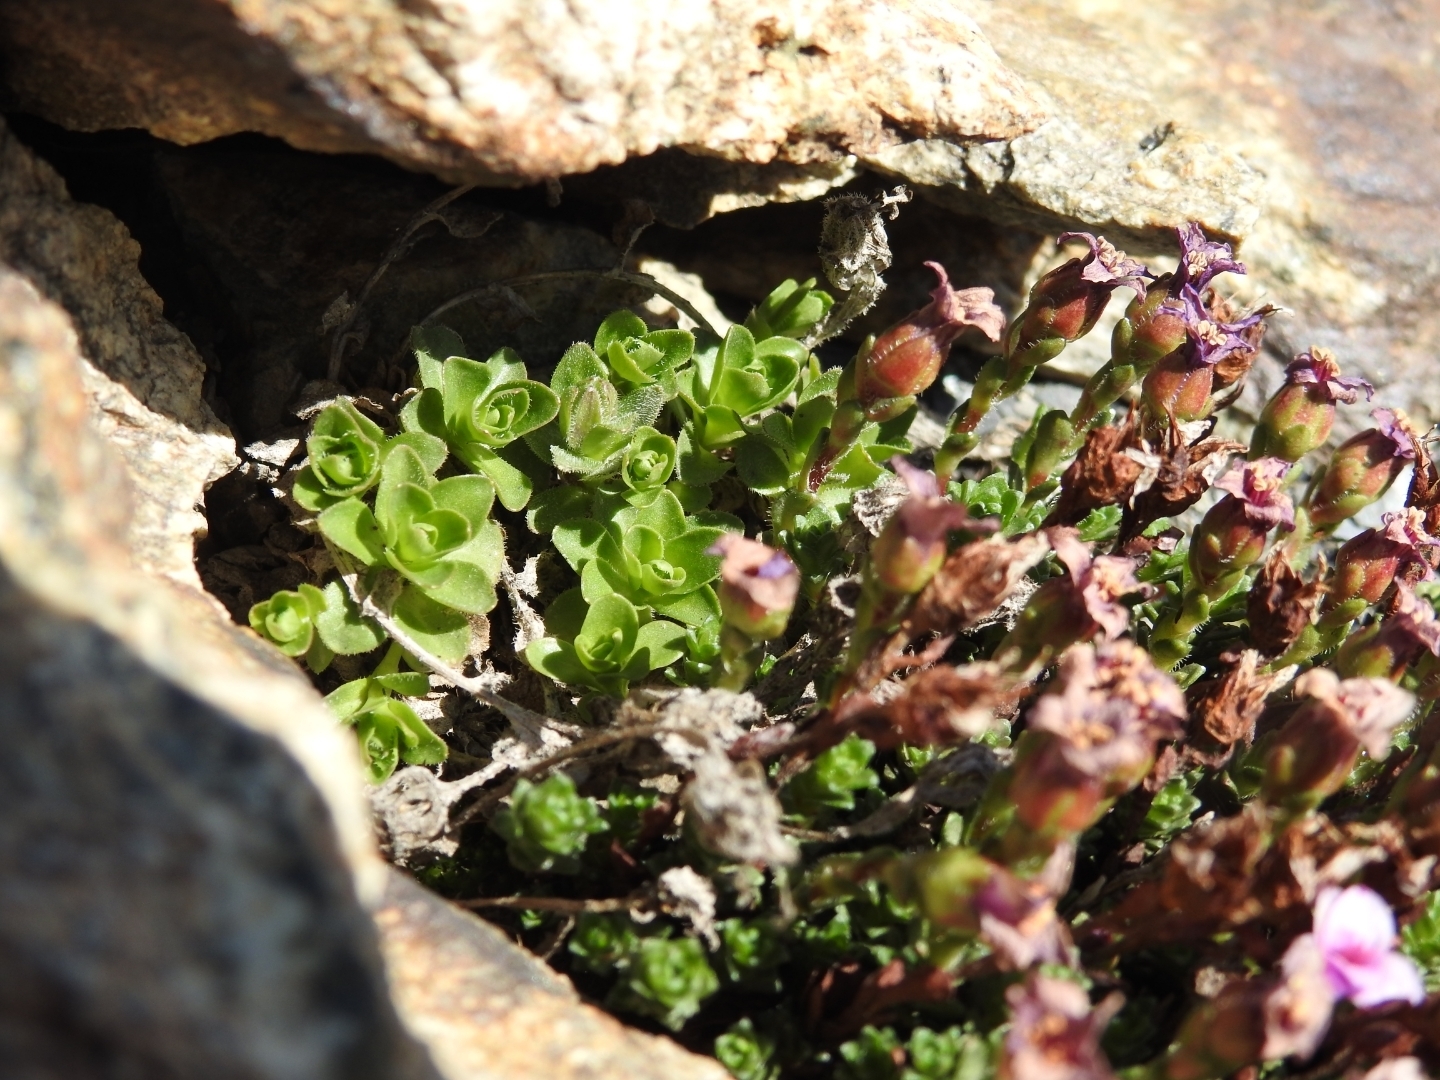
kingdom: Plantae
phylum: Tracheophyta
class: Magnoliopsida
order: Saxifragales
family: Saxifragaceae
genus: Saxifraga
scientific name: Saxifraga oppositifolia
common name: Purple saxifrage
